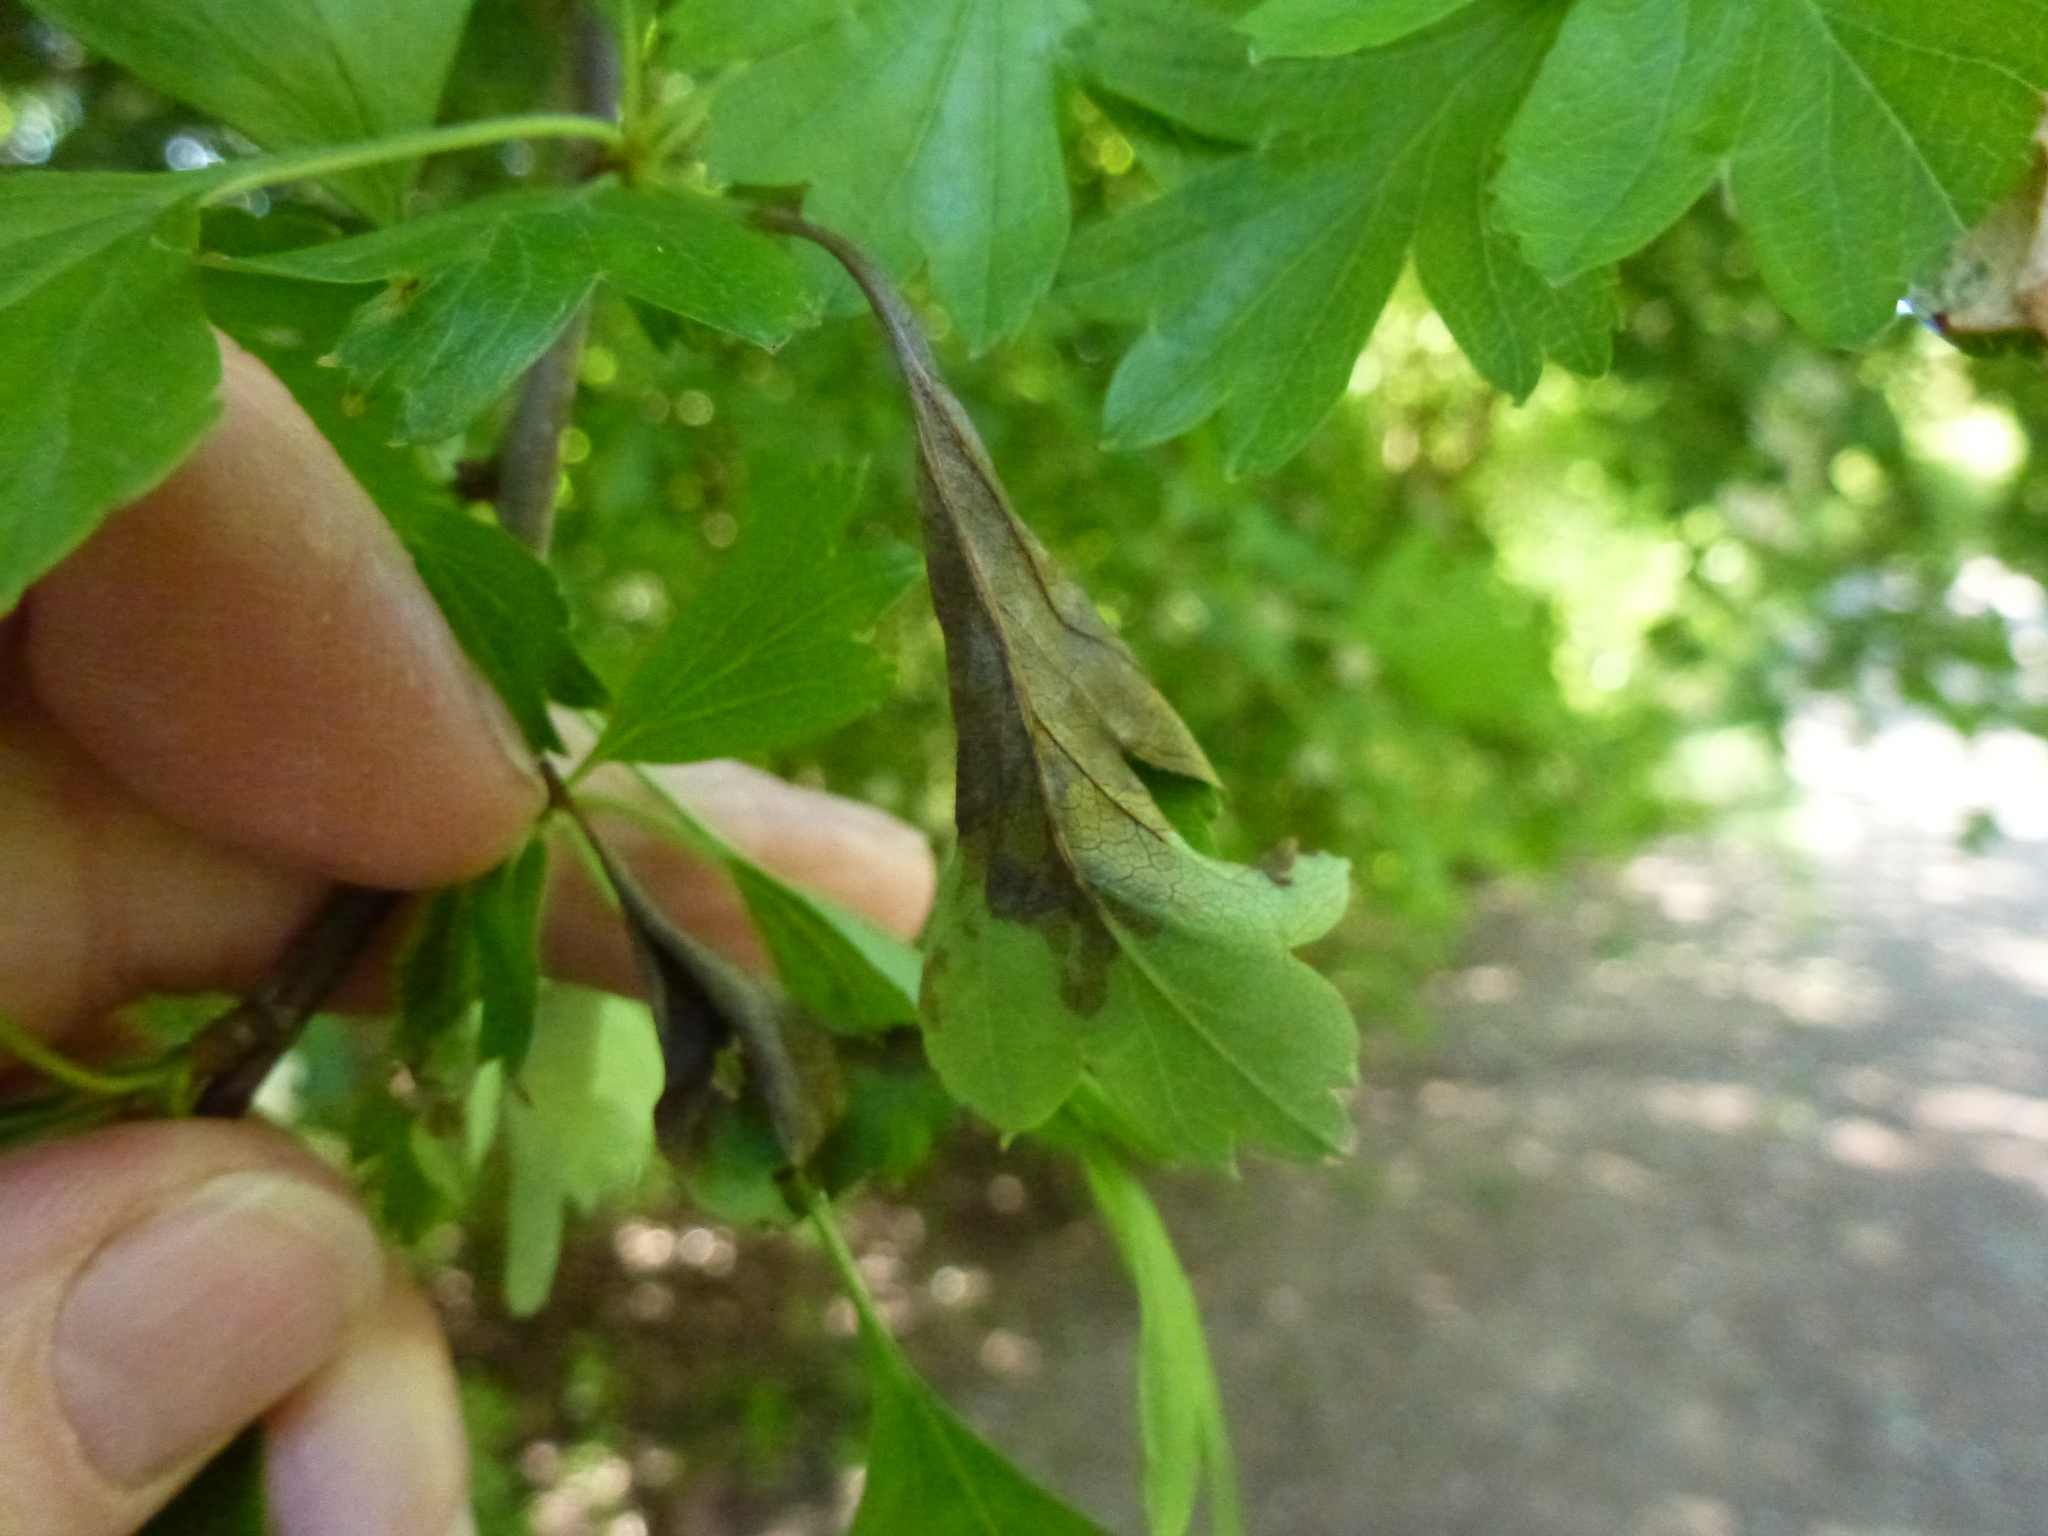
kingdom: Fungi
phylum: Ascomycota
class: Leotiomycetes
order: Helotiales
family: Sclerotiniaceae
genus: Monilinia
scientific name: Monilinia johnsonii
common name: Haw goblet
